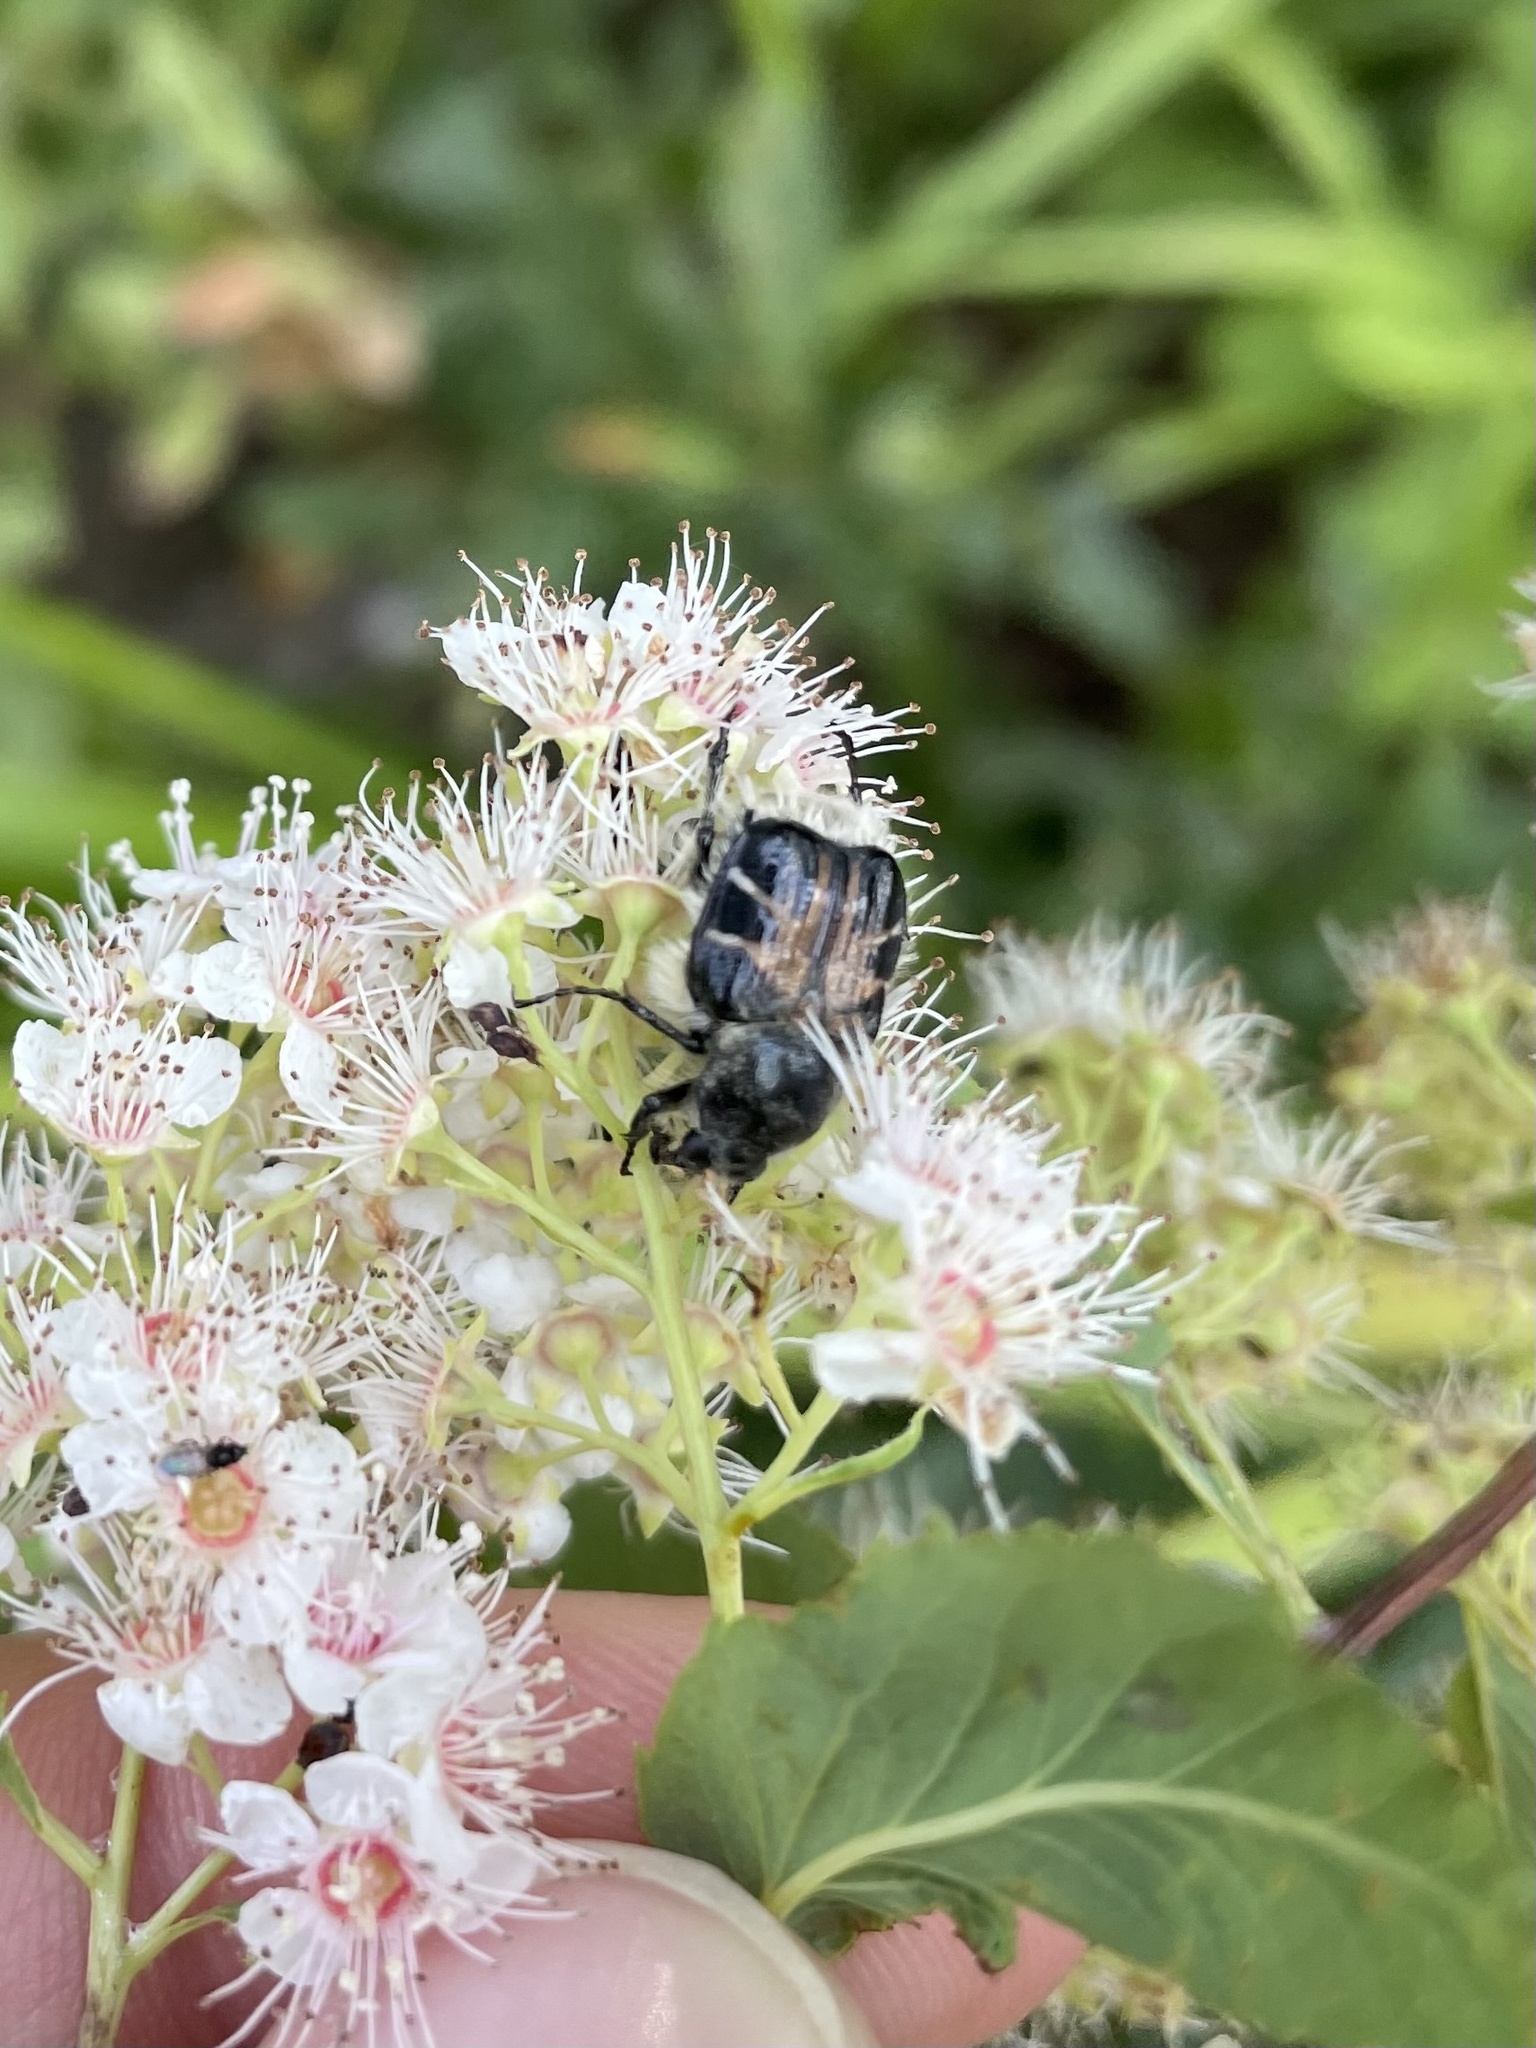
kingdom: Animalia
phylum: Arthropoda
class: Insecta
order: Coleoptera
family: Scarabaeidae
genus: Trichiotinus
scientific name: Trichiotinus assimilis
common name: Bee-mimic beetle
